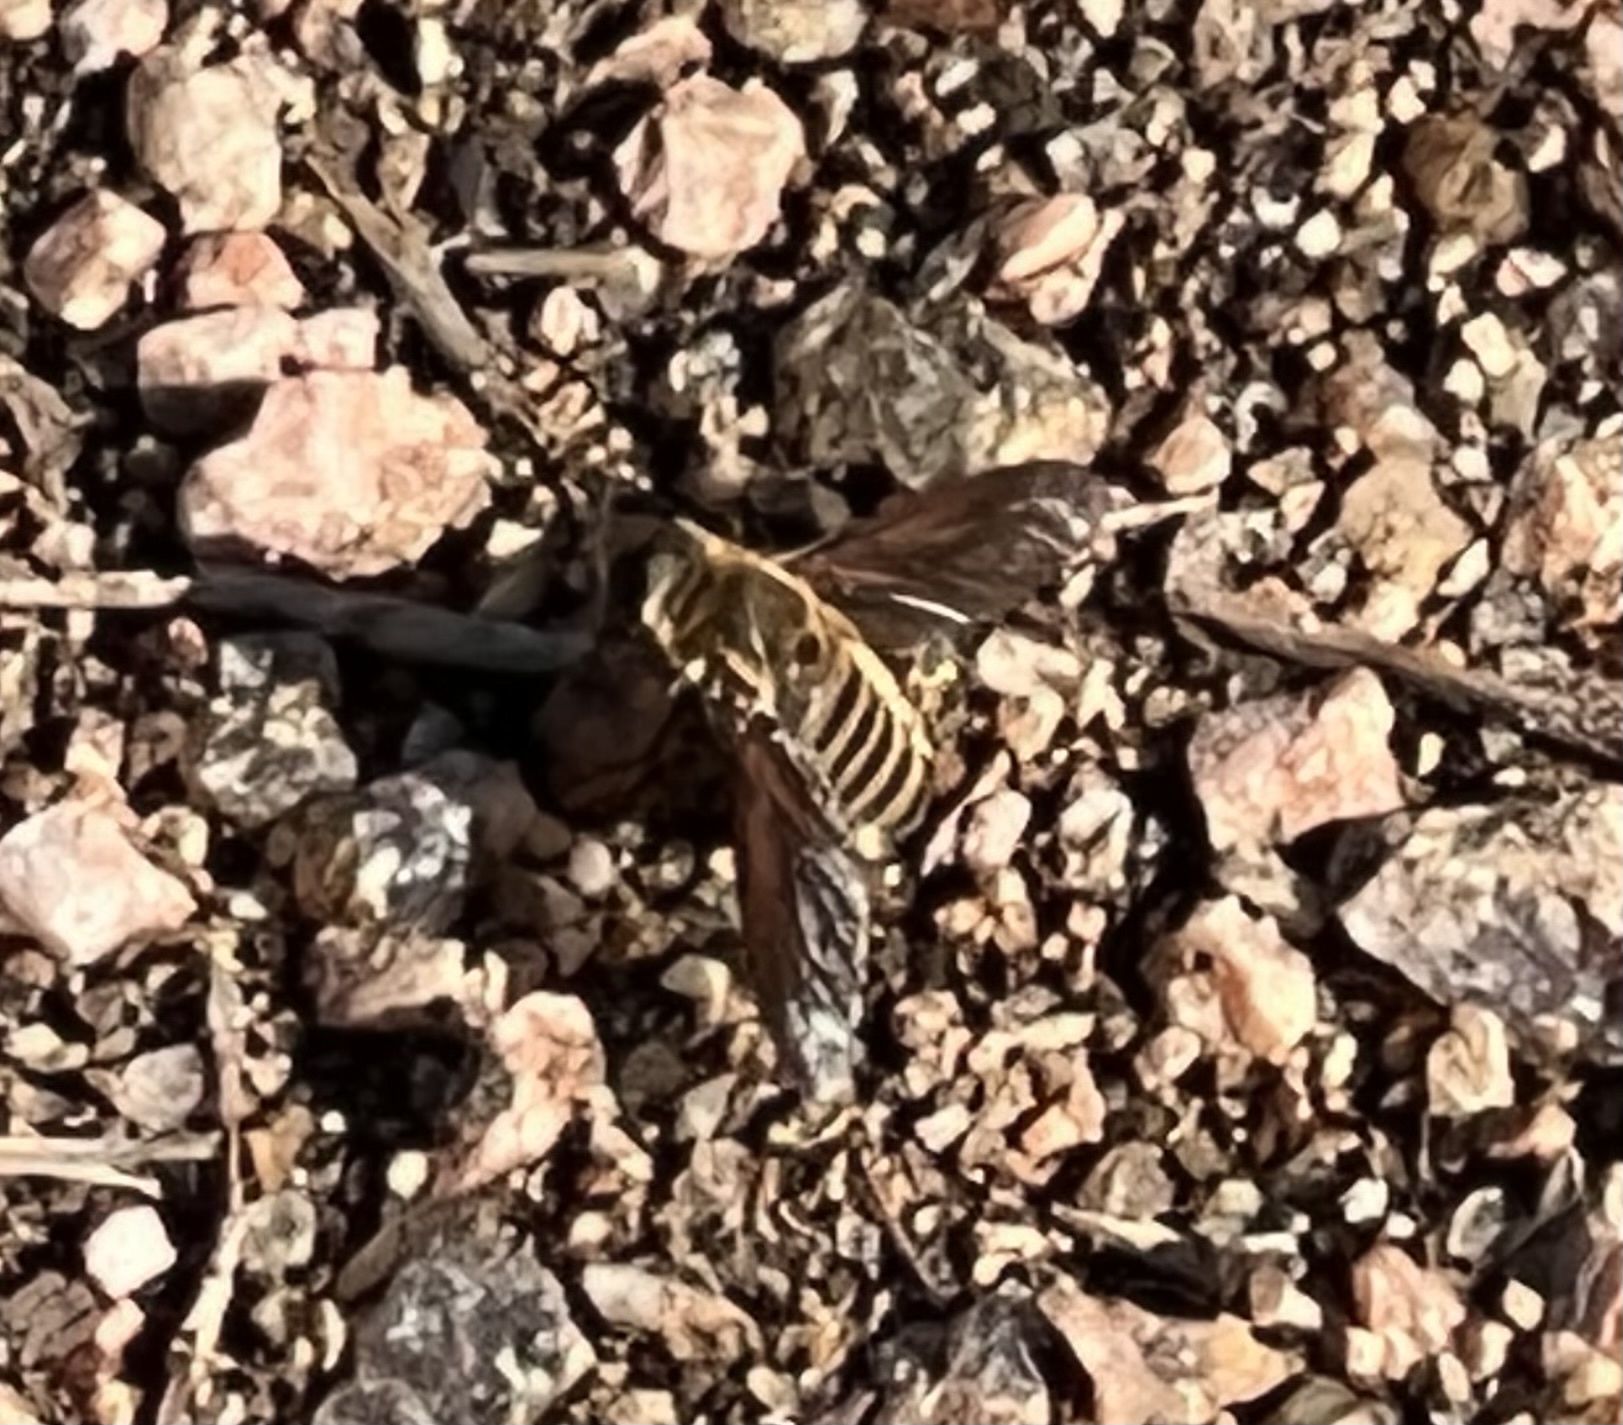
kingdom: Animalia
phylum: Arthropoda
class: Insecta
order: Diptera
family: Bombyliidae
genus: Poecilanthrax
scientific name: Poecilanthrax lucifer
